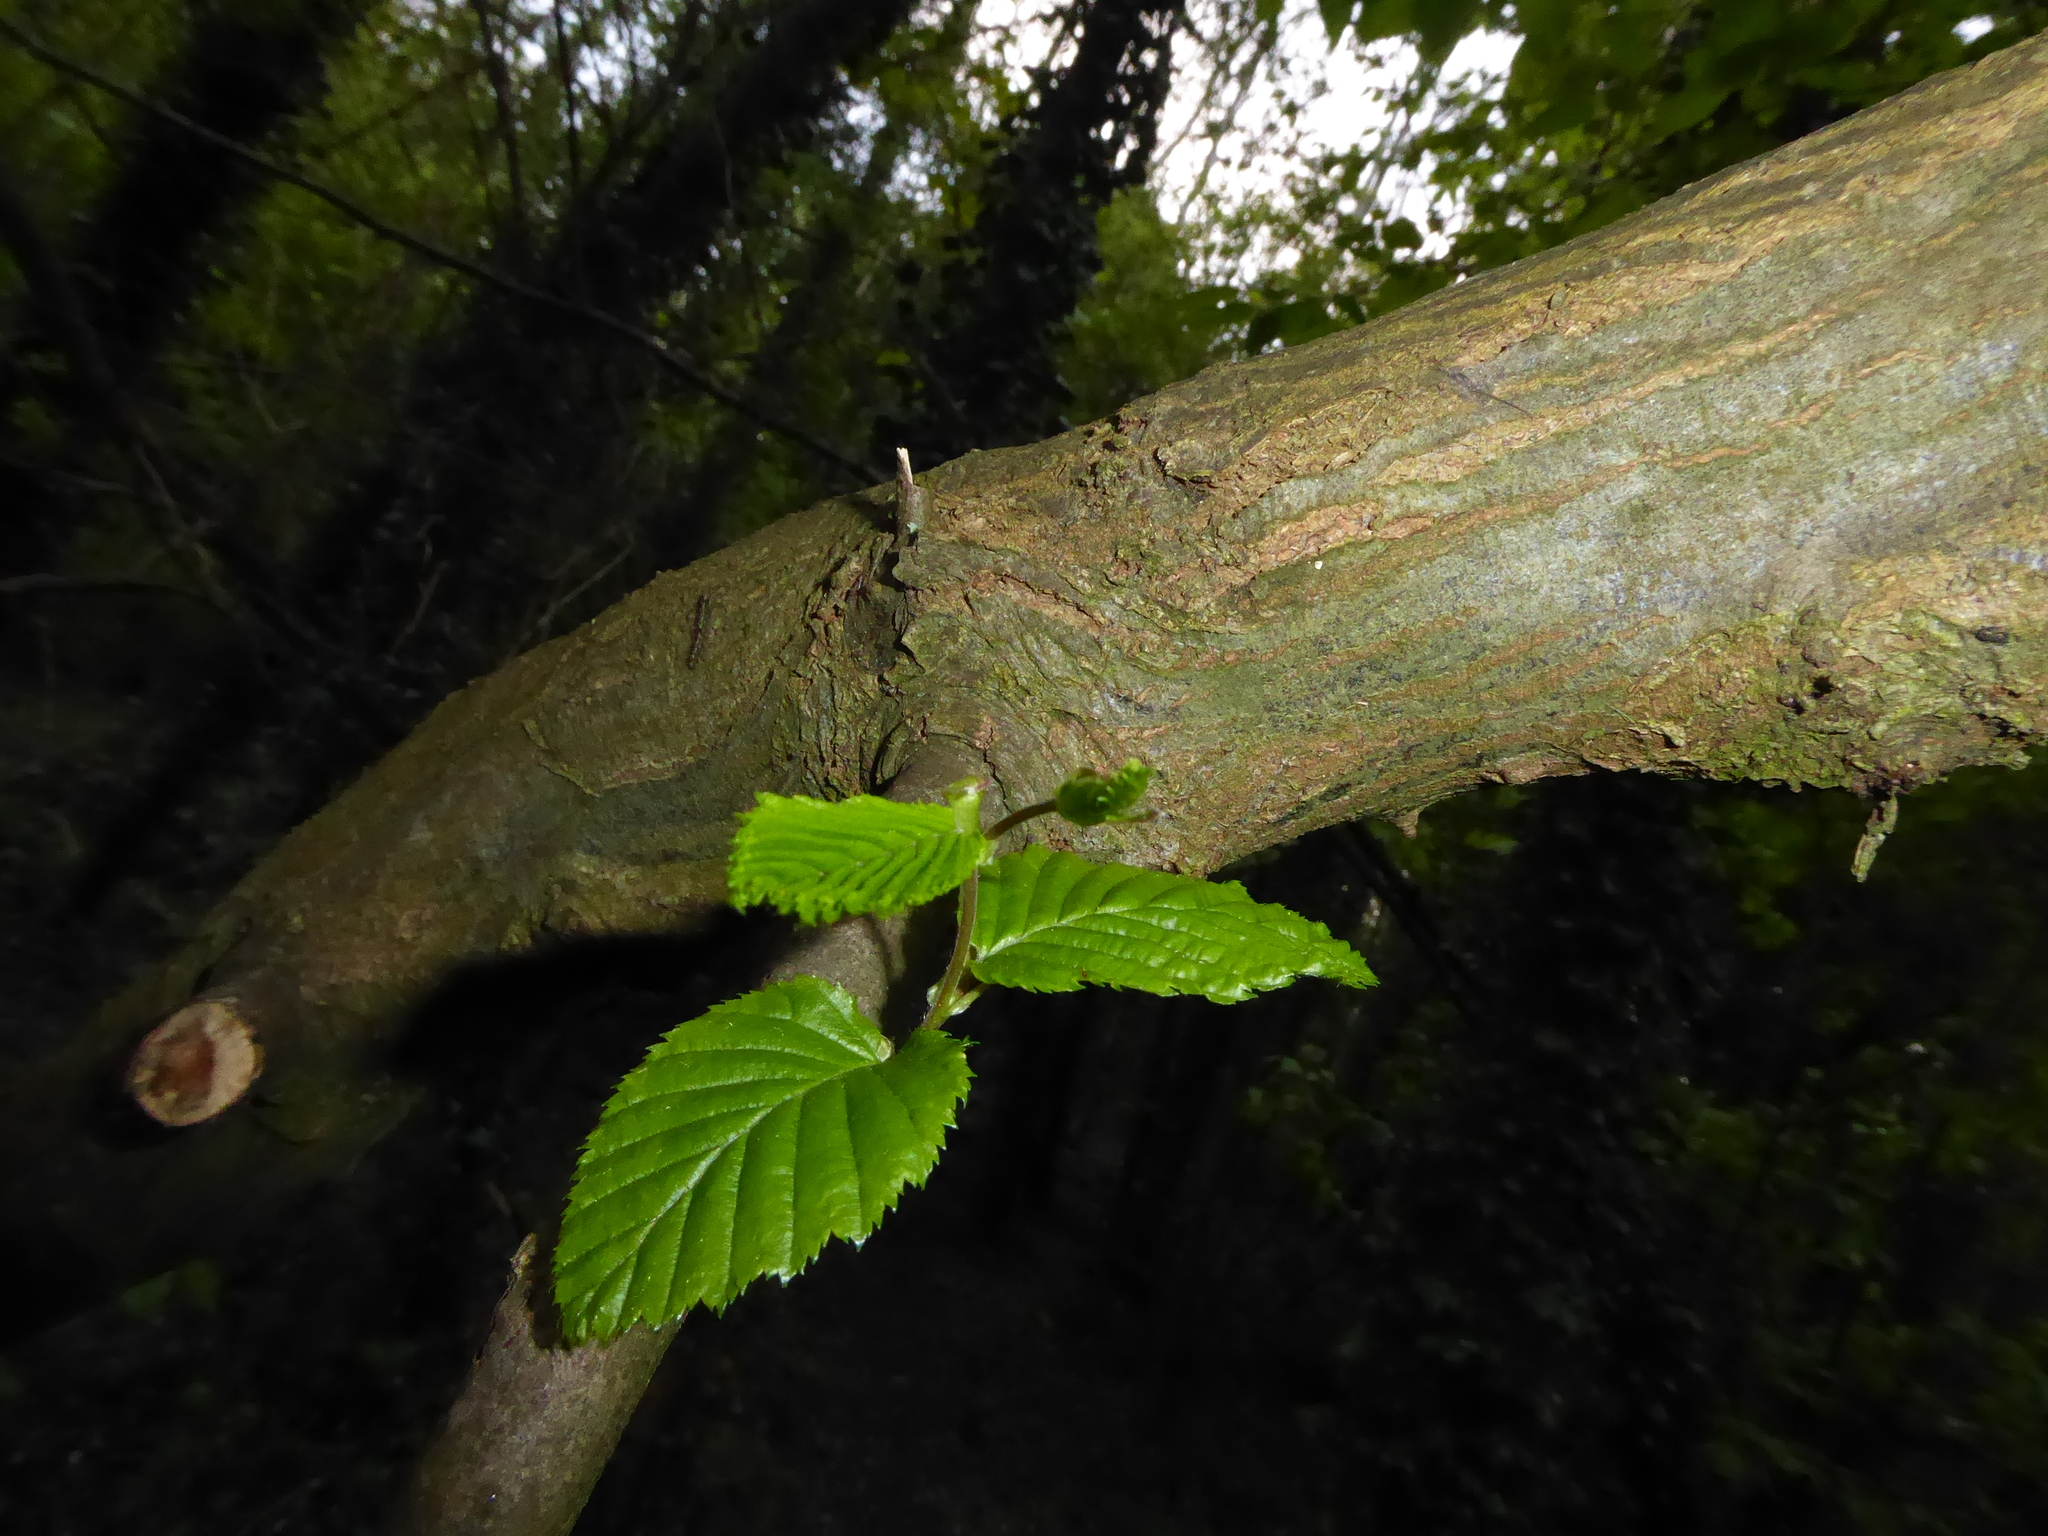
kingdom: Plantae
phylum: Tracheophyta
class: Magnoliopsida
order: Fagales
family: Fagaceae
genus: Fagus
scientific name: Fagus sylvatica
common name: Beech
